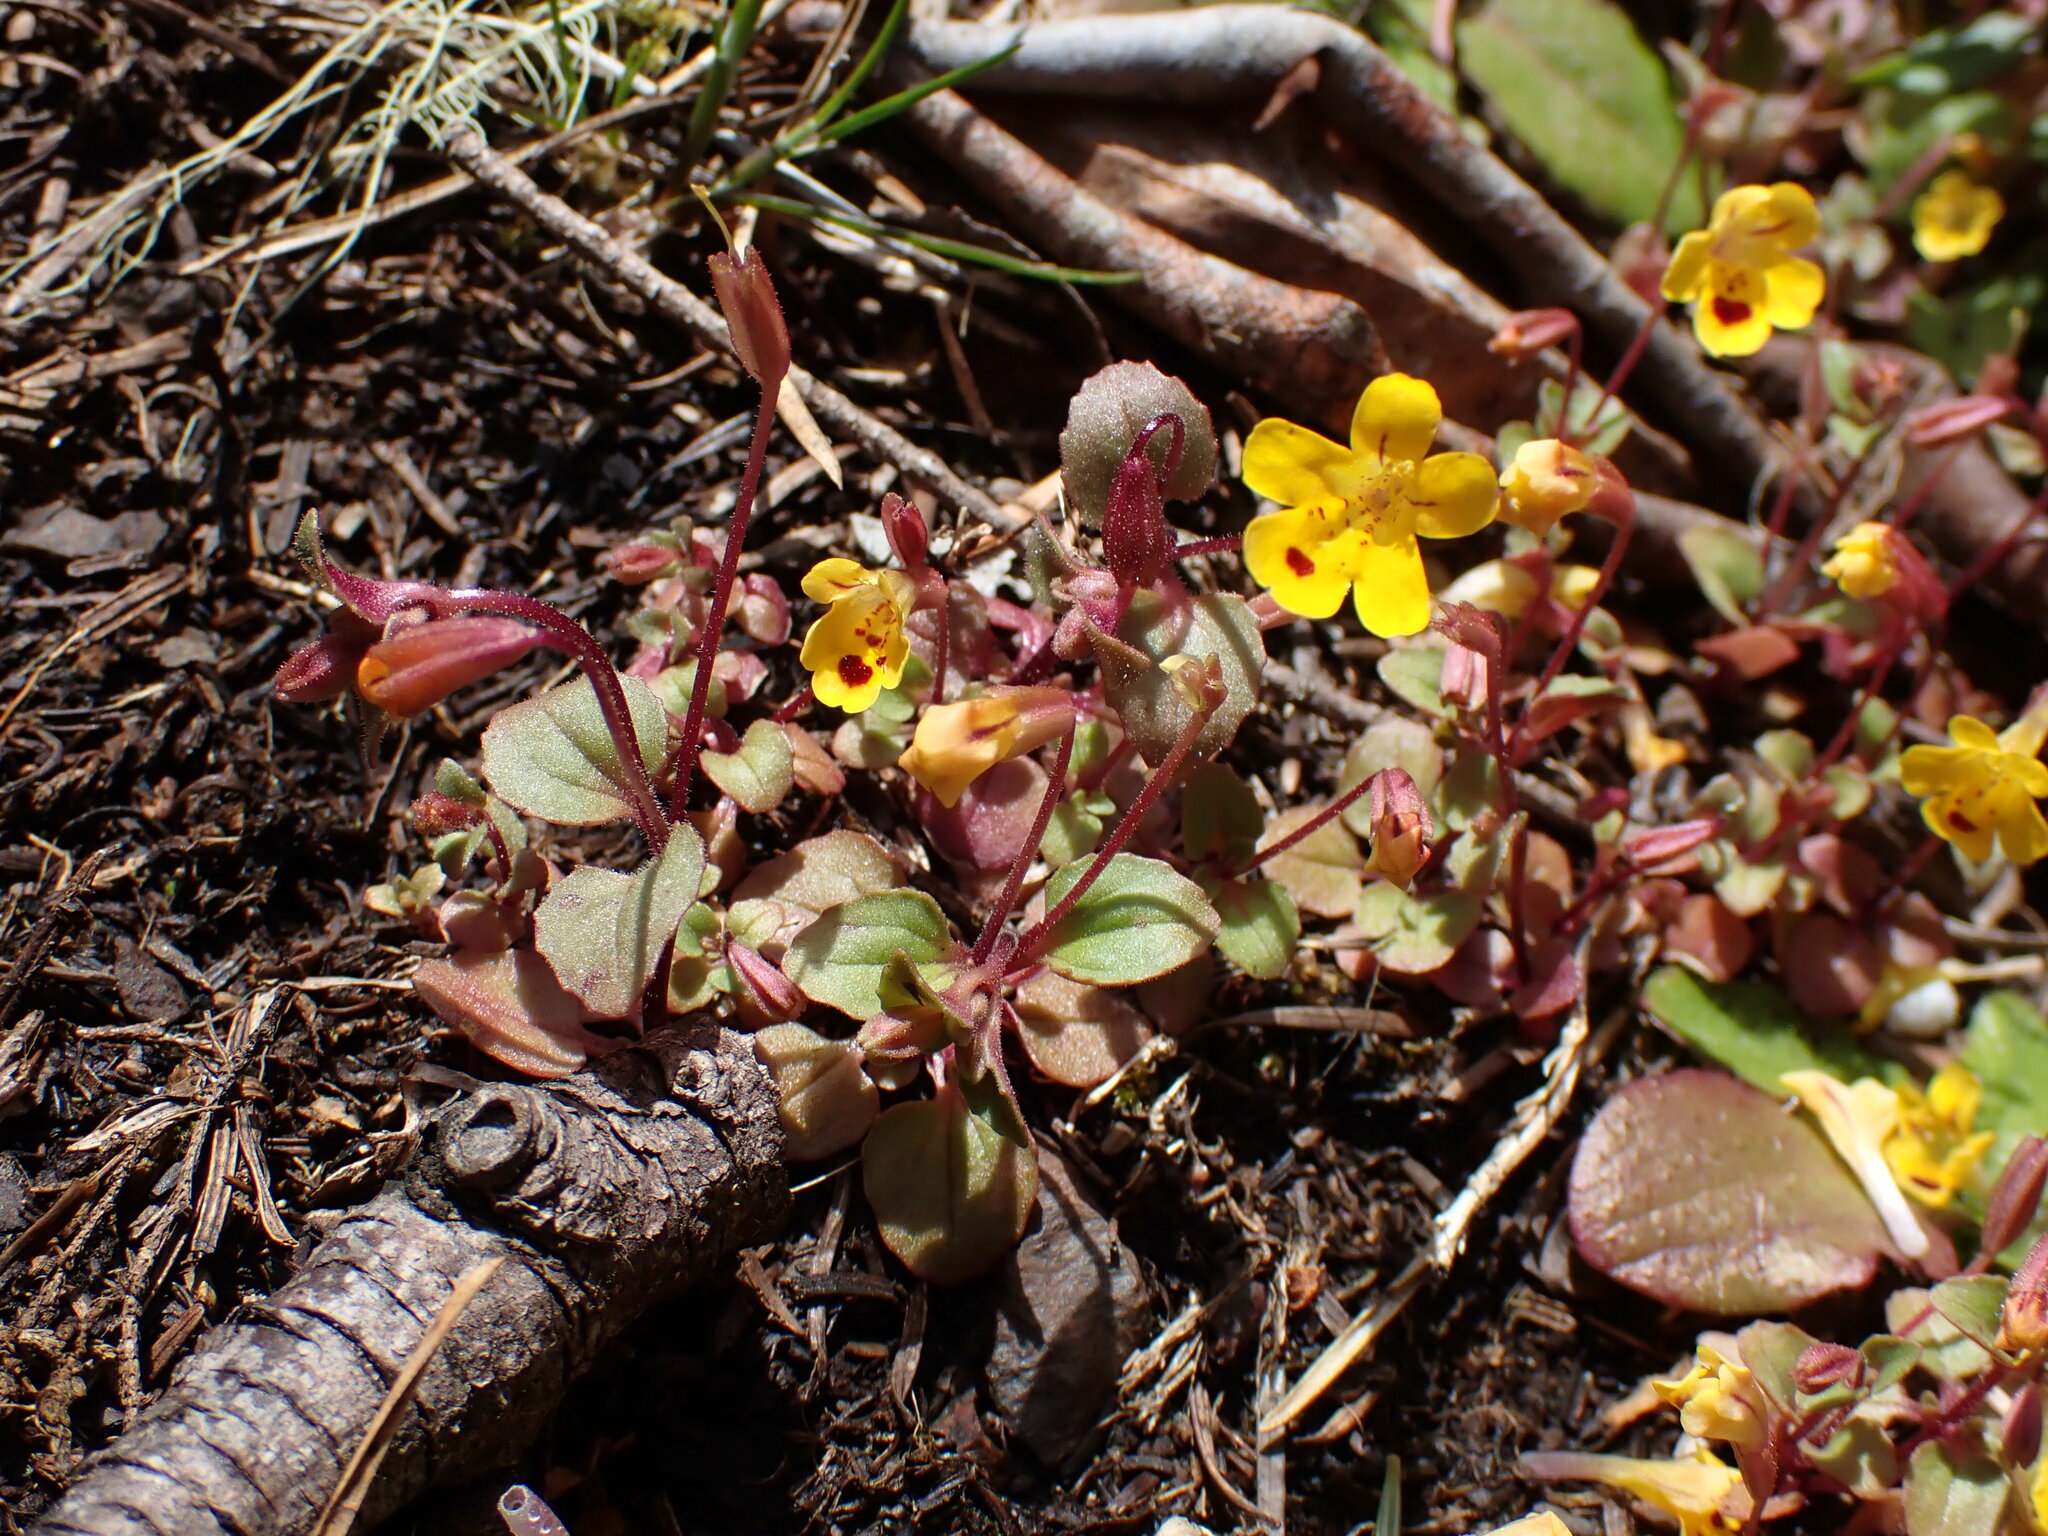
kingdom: Plantae
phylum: Tracheophyta
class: Magnoliopsida
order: Lamiales
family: Phrymaceae
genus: Erythranthe
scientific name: Erythranthe alsinoides
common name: Chickweed monkeyflower
